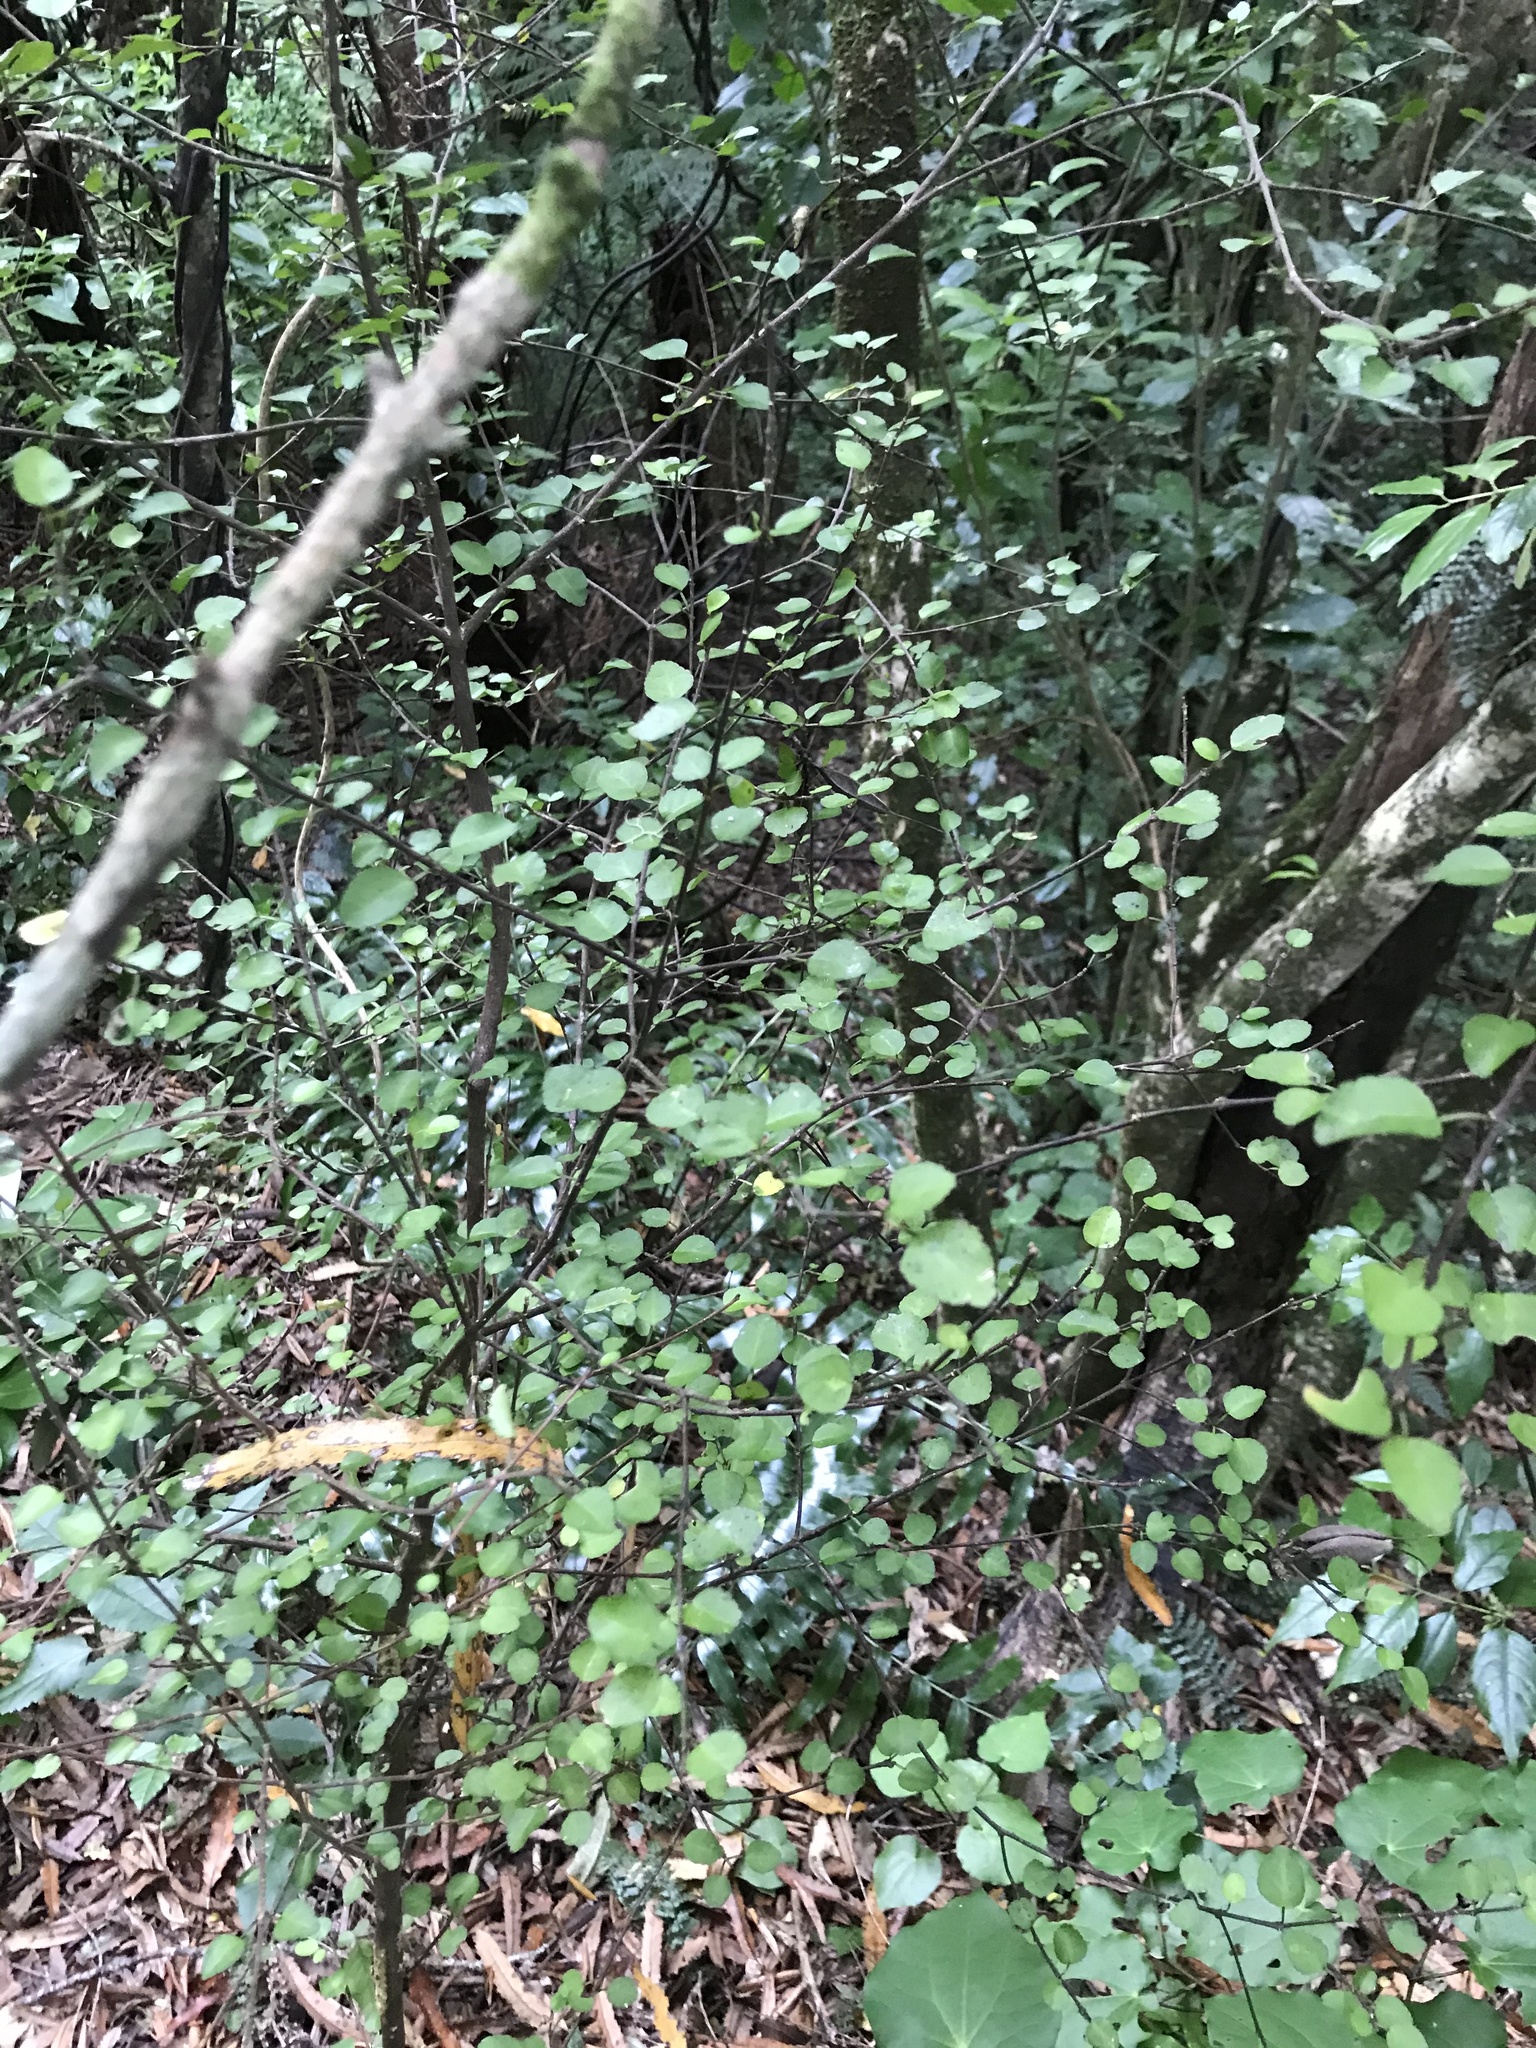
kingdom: Plantae
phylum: Tracheophyta
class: Magnoliopsida
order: Sapindales
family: Rutaceae
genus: Melicope
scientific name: Melicope simplex
